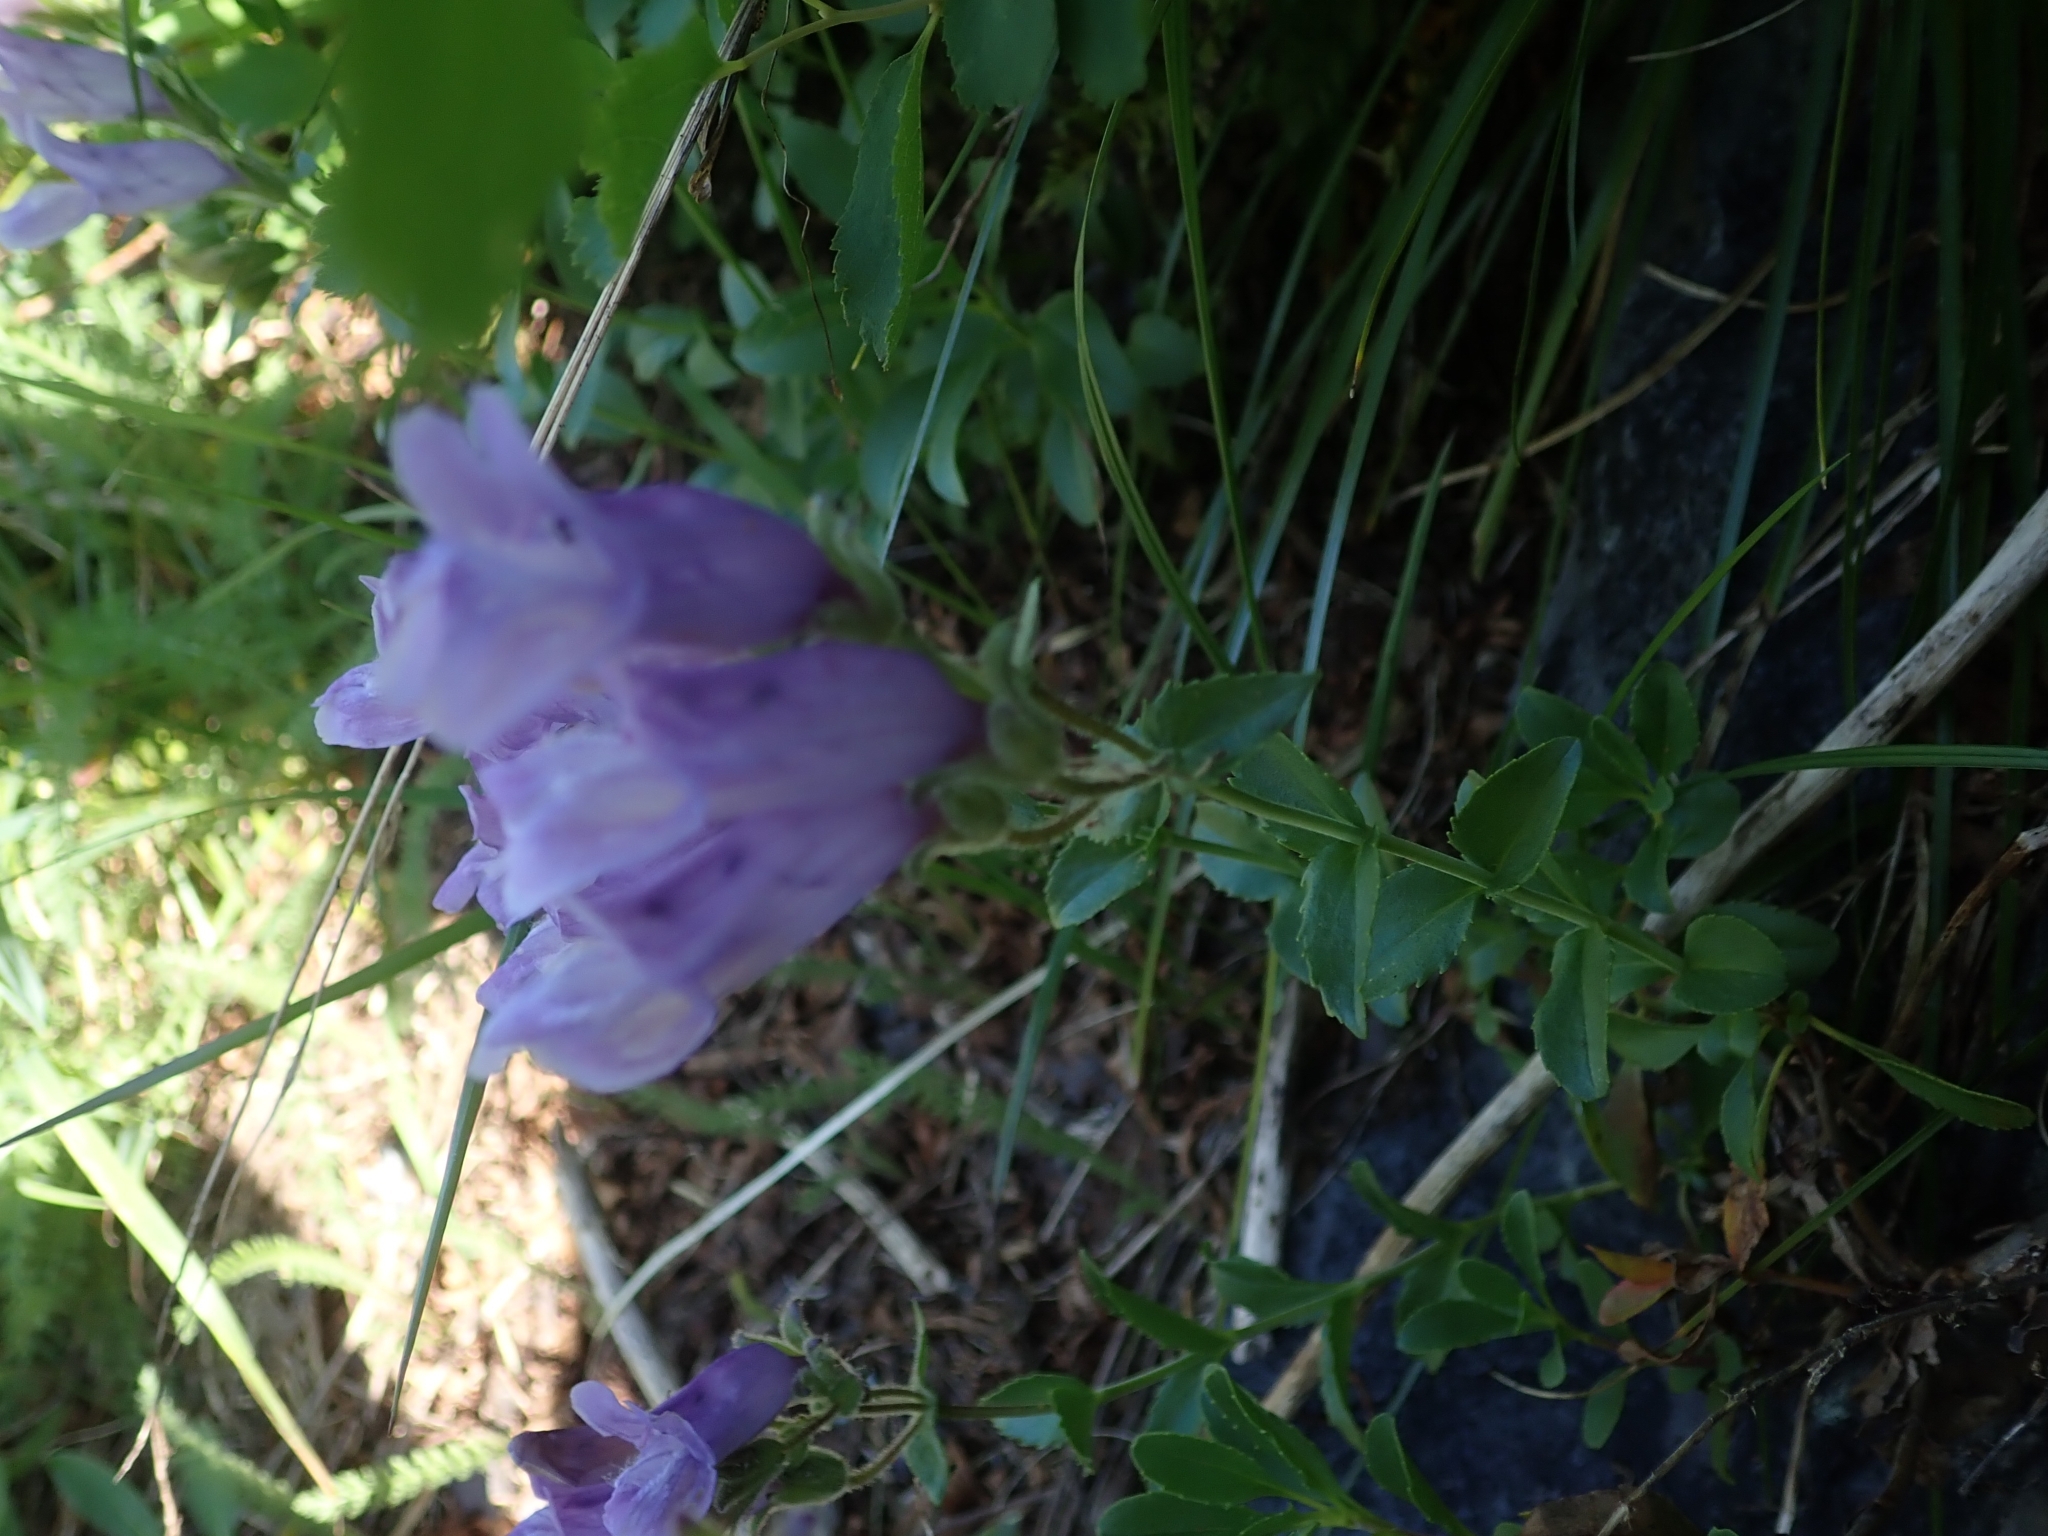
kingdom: Plantae
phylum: Tracheophyta
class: Magnoliopsida
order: Lamiales
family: Plantaginaceae
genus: Penstemon
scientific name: Penstemon ellipticus
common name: Alpine beardtongue
